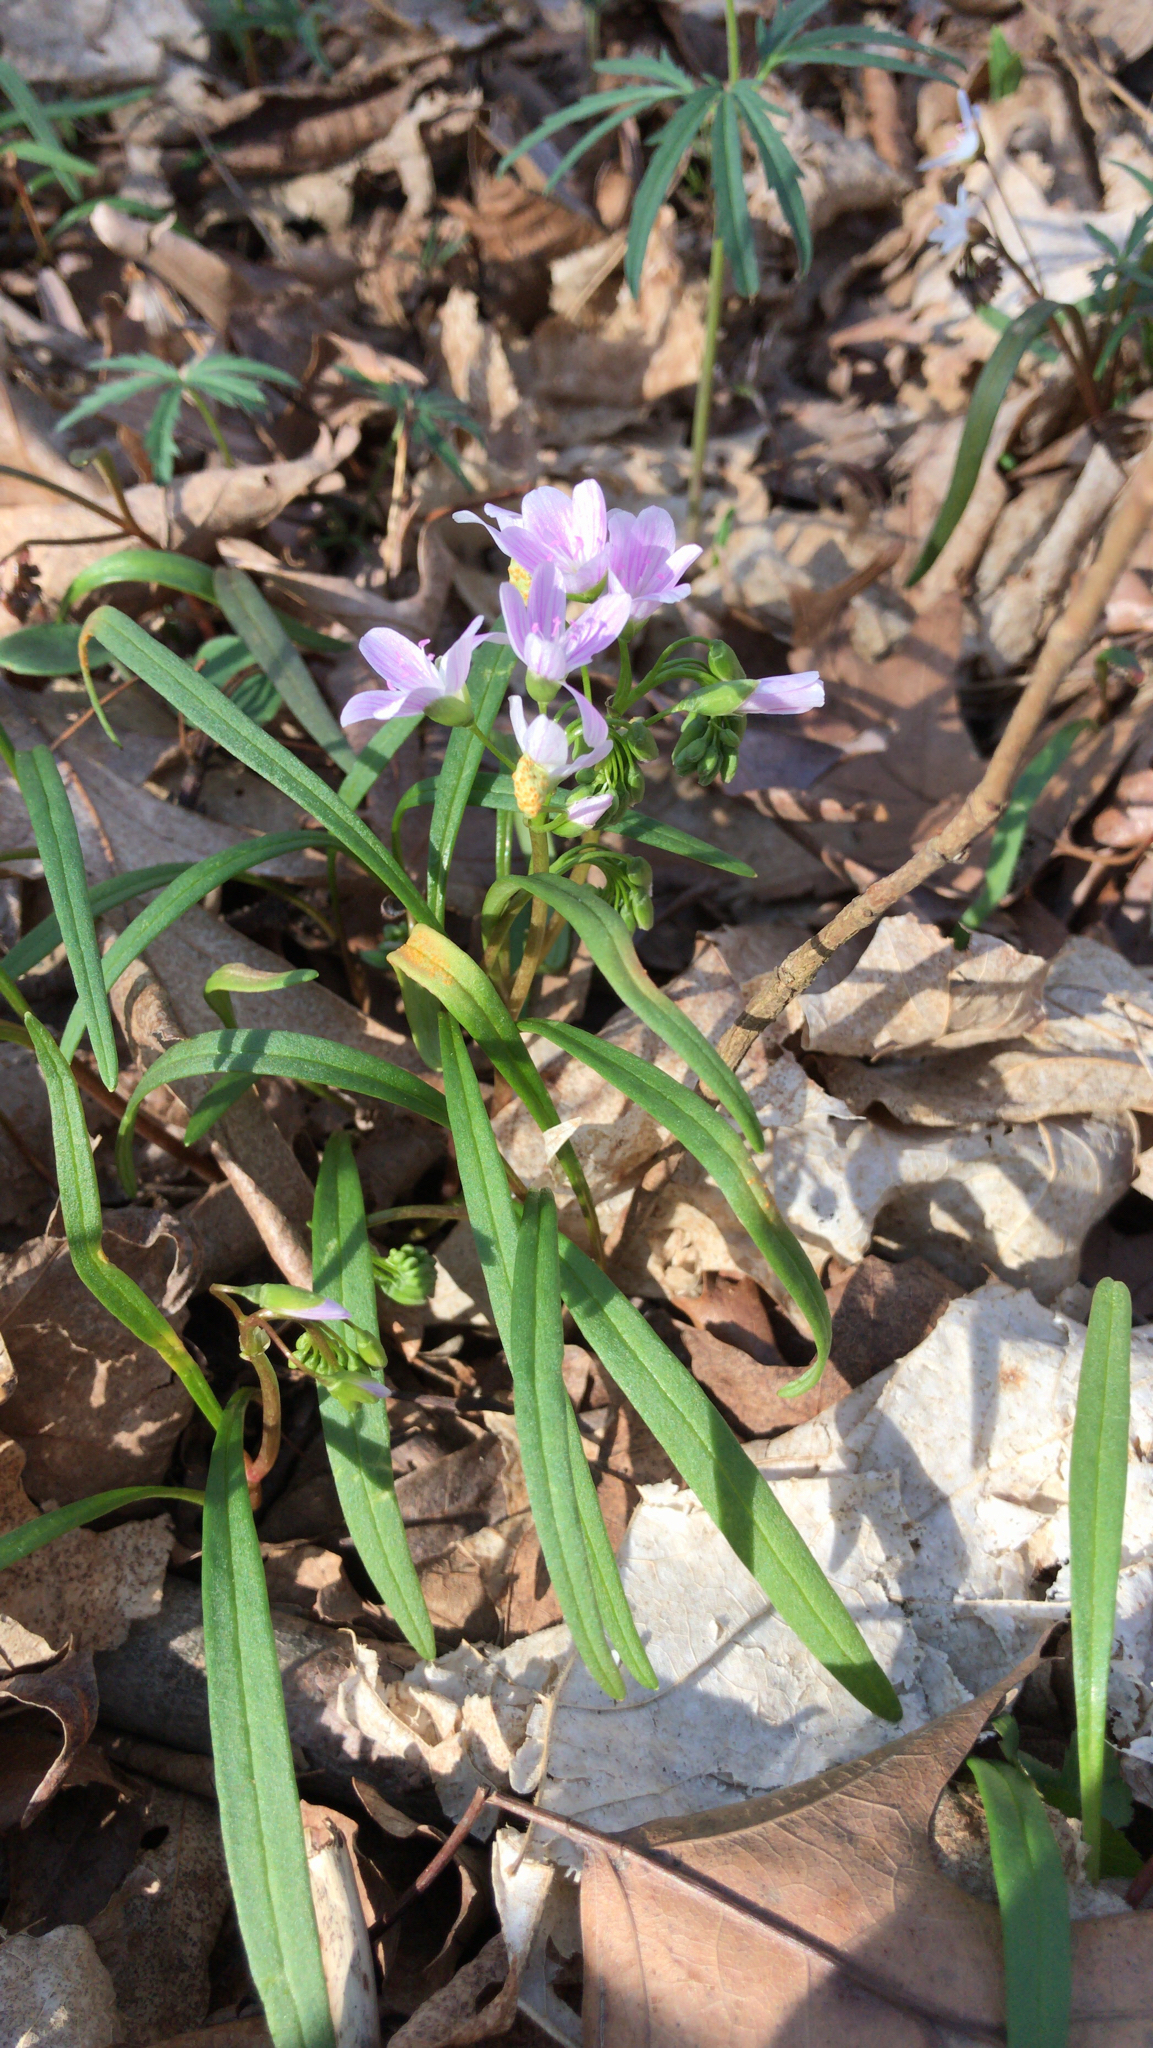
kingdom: Plantae
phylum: Tracheophyta
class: Magnoliopsida
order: Caryophyllales
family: Montiaceae
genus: Claytonia
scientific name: Claytonia virginica
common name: Virginia springbeauty
